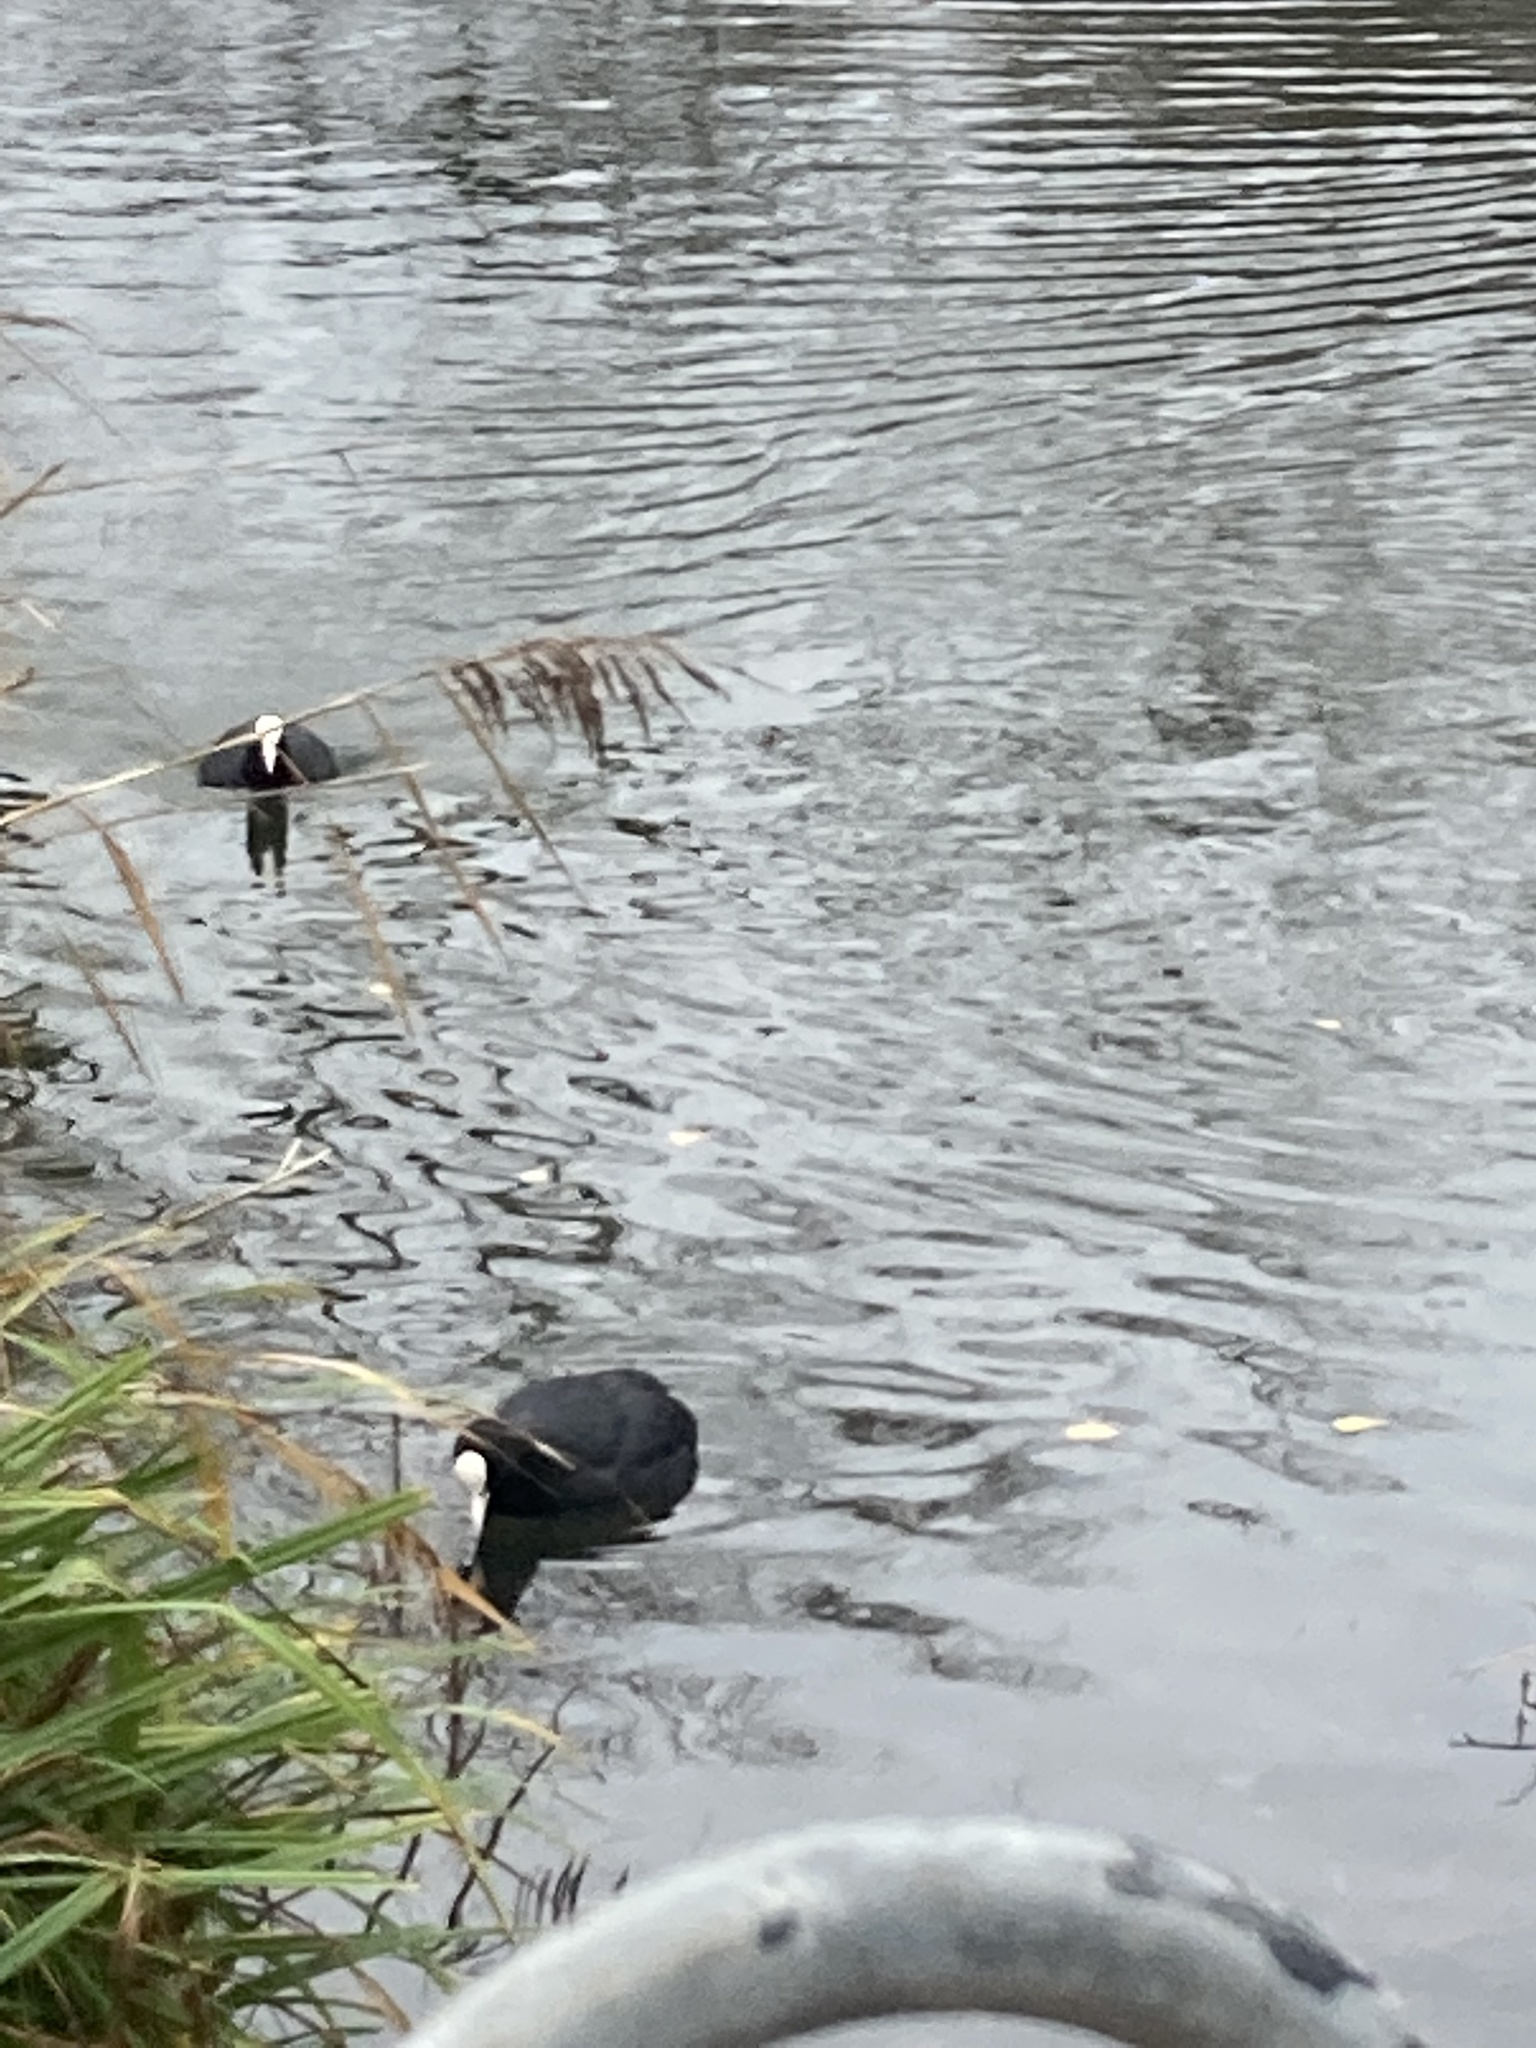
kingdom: Animalia
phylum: Chordata
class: Aves
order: Gruiformes
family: Rallidae
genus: Fulica
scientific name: Fulica atra
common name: Eurasian coot
